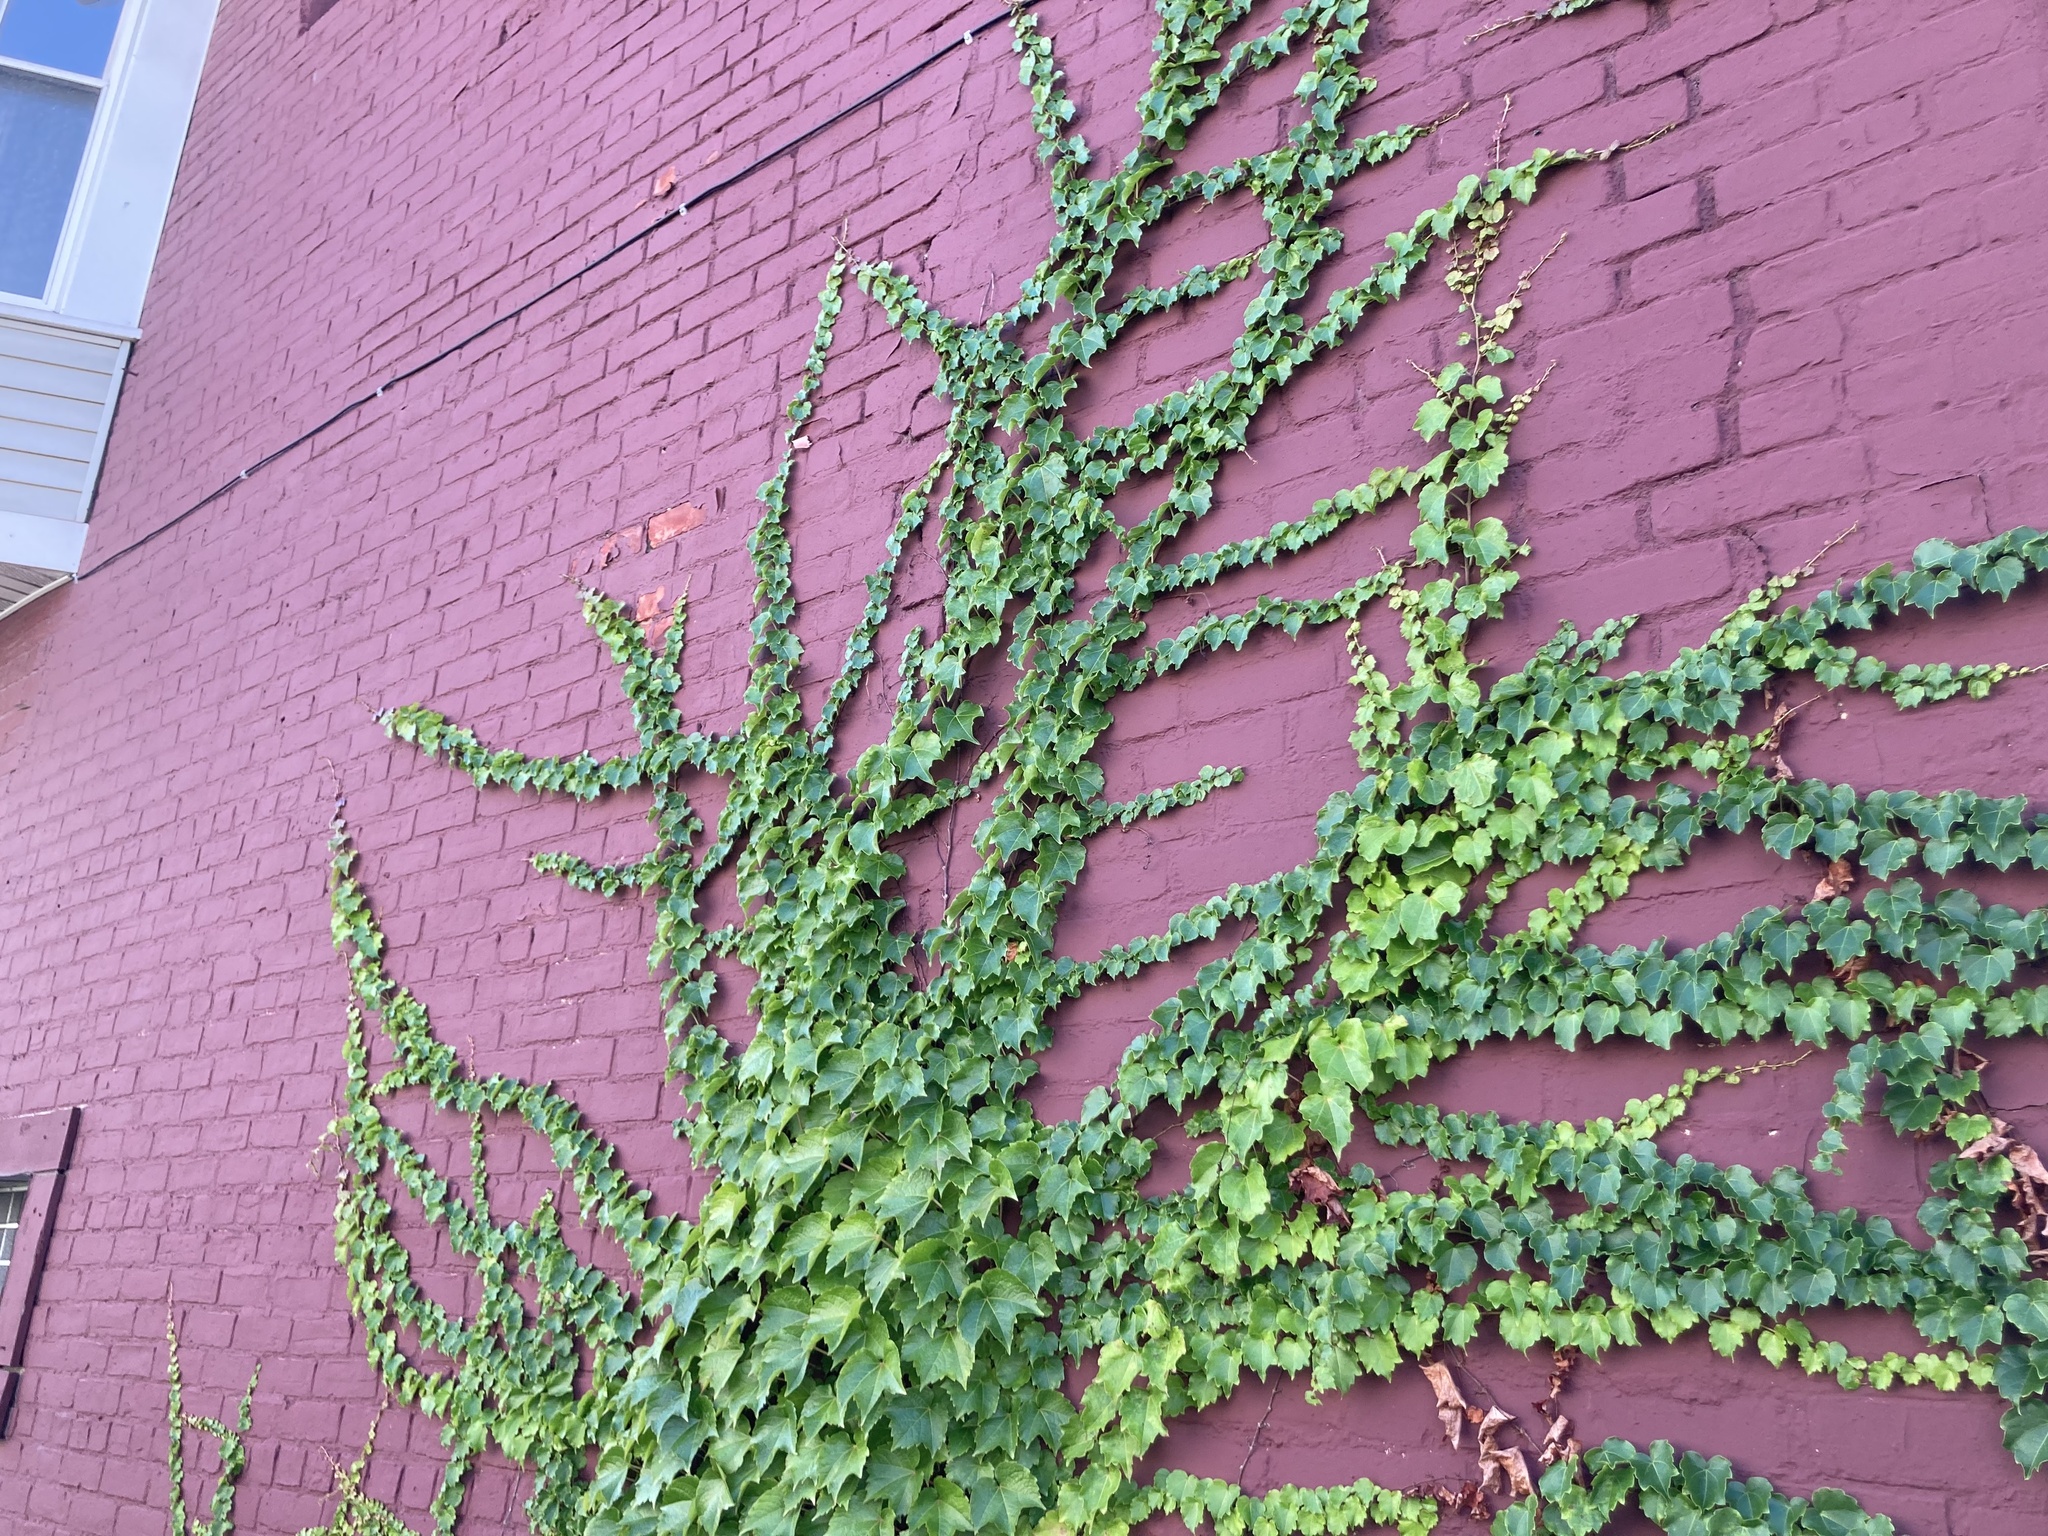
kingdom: Plantae
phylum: Tracheophyta
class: Magnoliopsida
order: Vitales
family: Vitaceae
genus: Parthenocissus
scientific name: Parthenocissus tricuspidata
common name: Boston ivy
